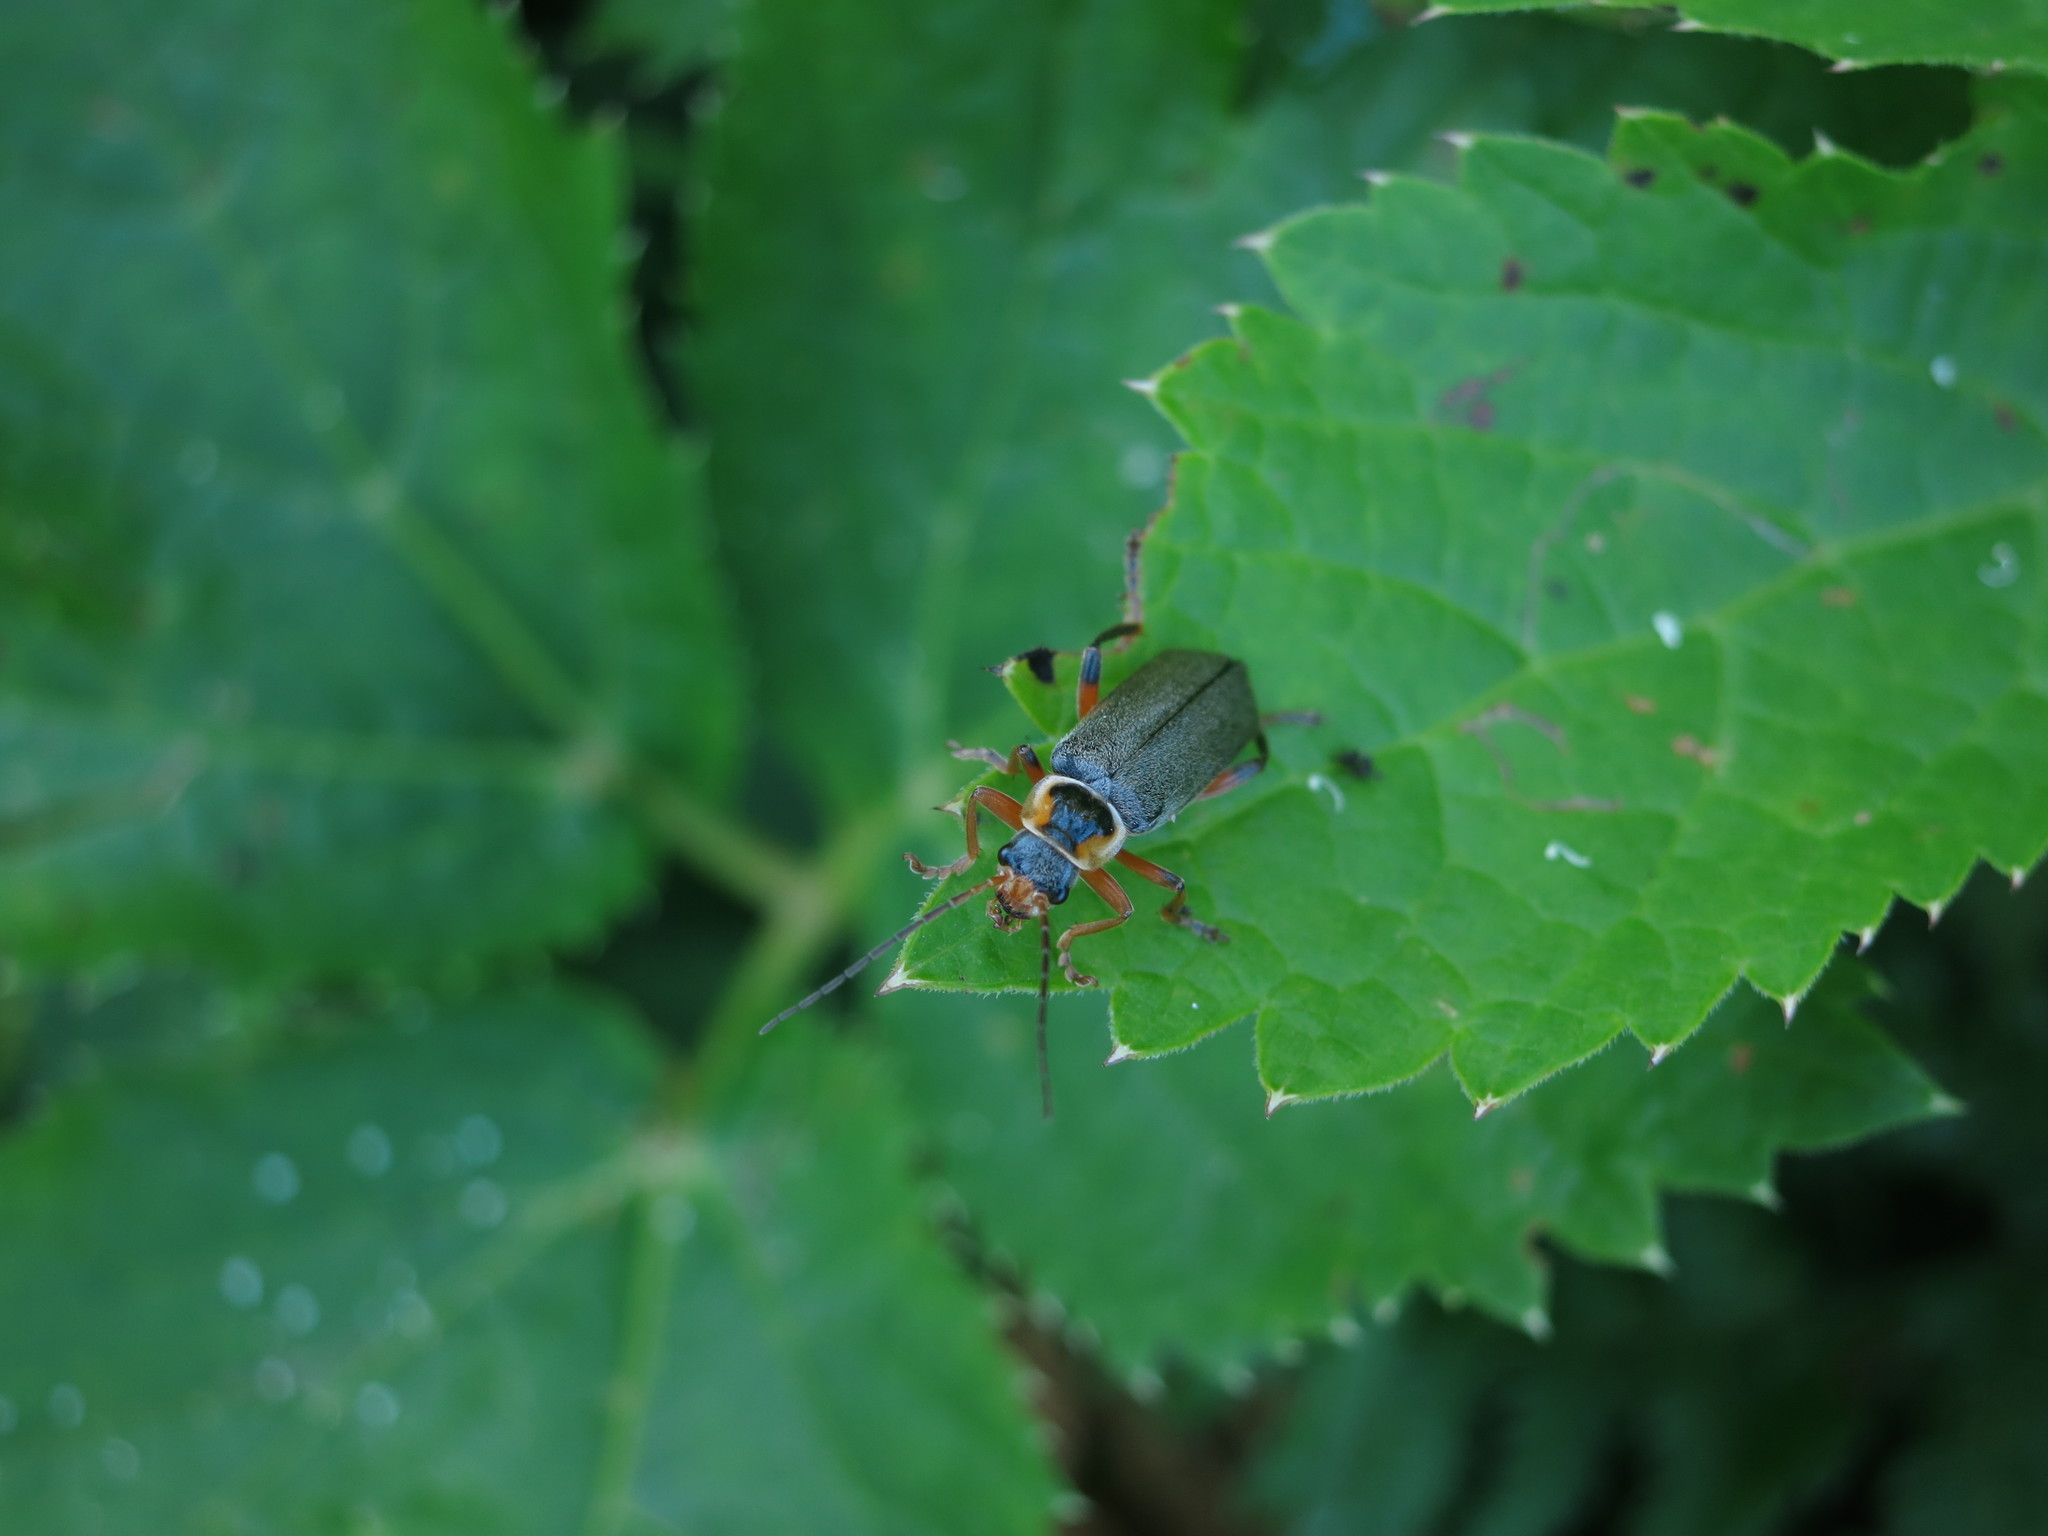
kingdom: Animalia
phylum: Arthropoda
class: Insecta
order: Coleoptera
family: Cantharidae
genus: Cantharis
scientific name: Cantharis nigricans
